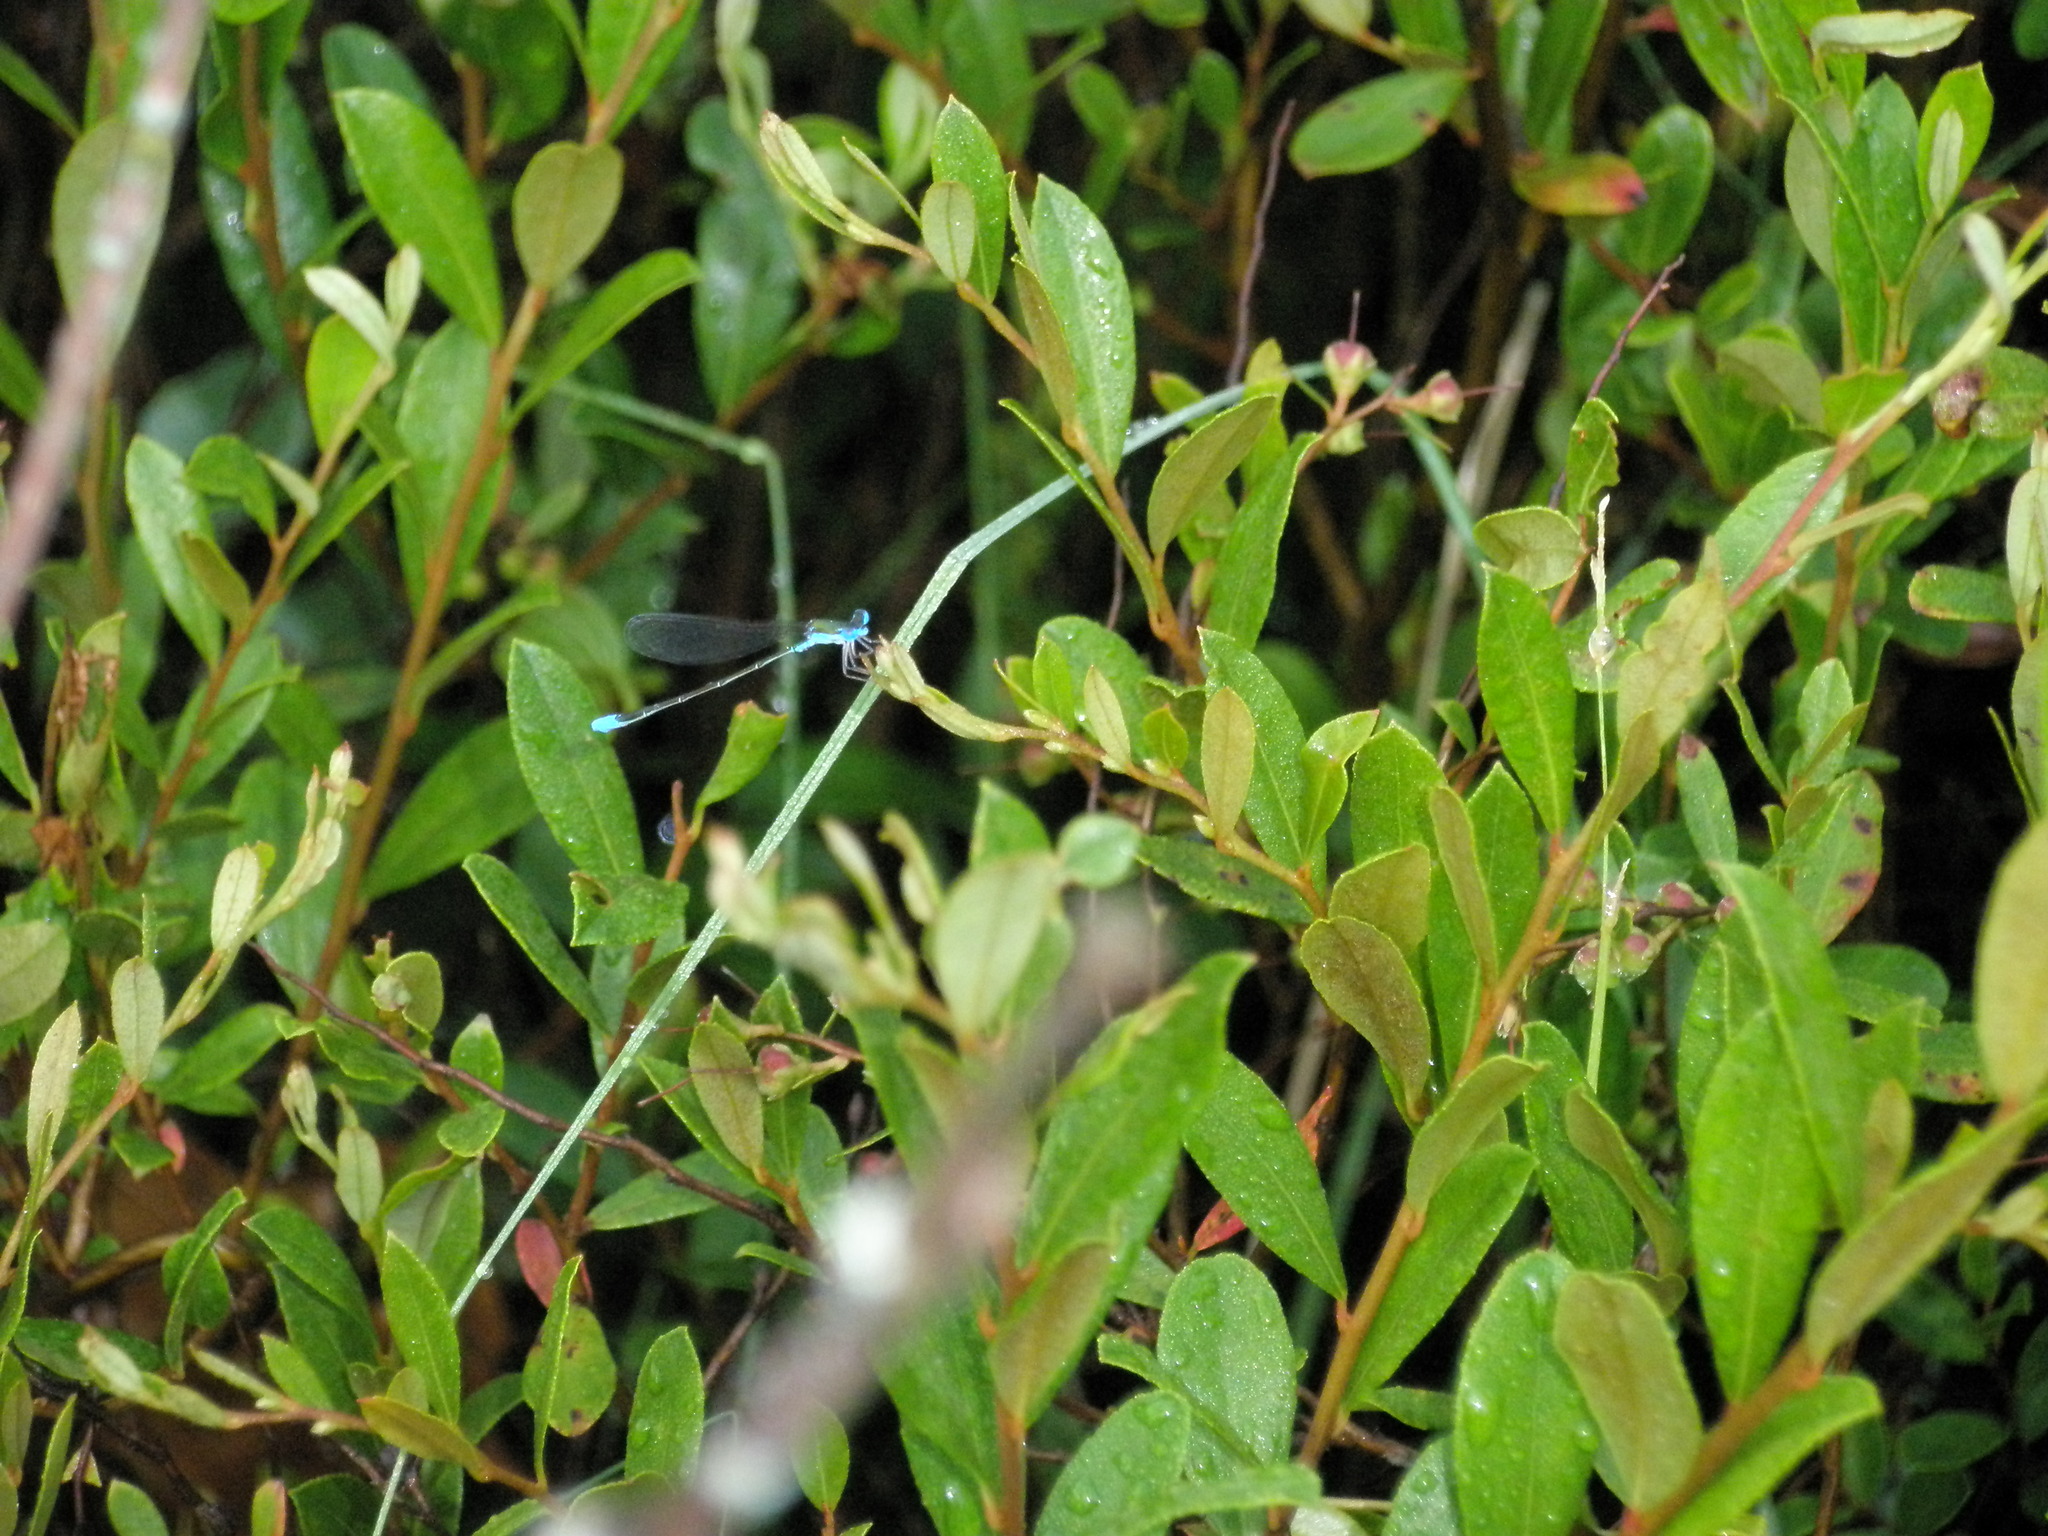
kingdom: Animalia
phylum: Arthropoda
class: Insecta
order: Odonata
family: Coenagrionidae
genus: Nehalennia
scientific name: Nehalennia gracilis
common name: Sphagnum sprite
